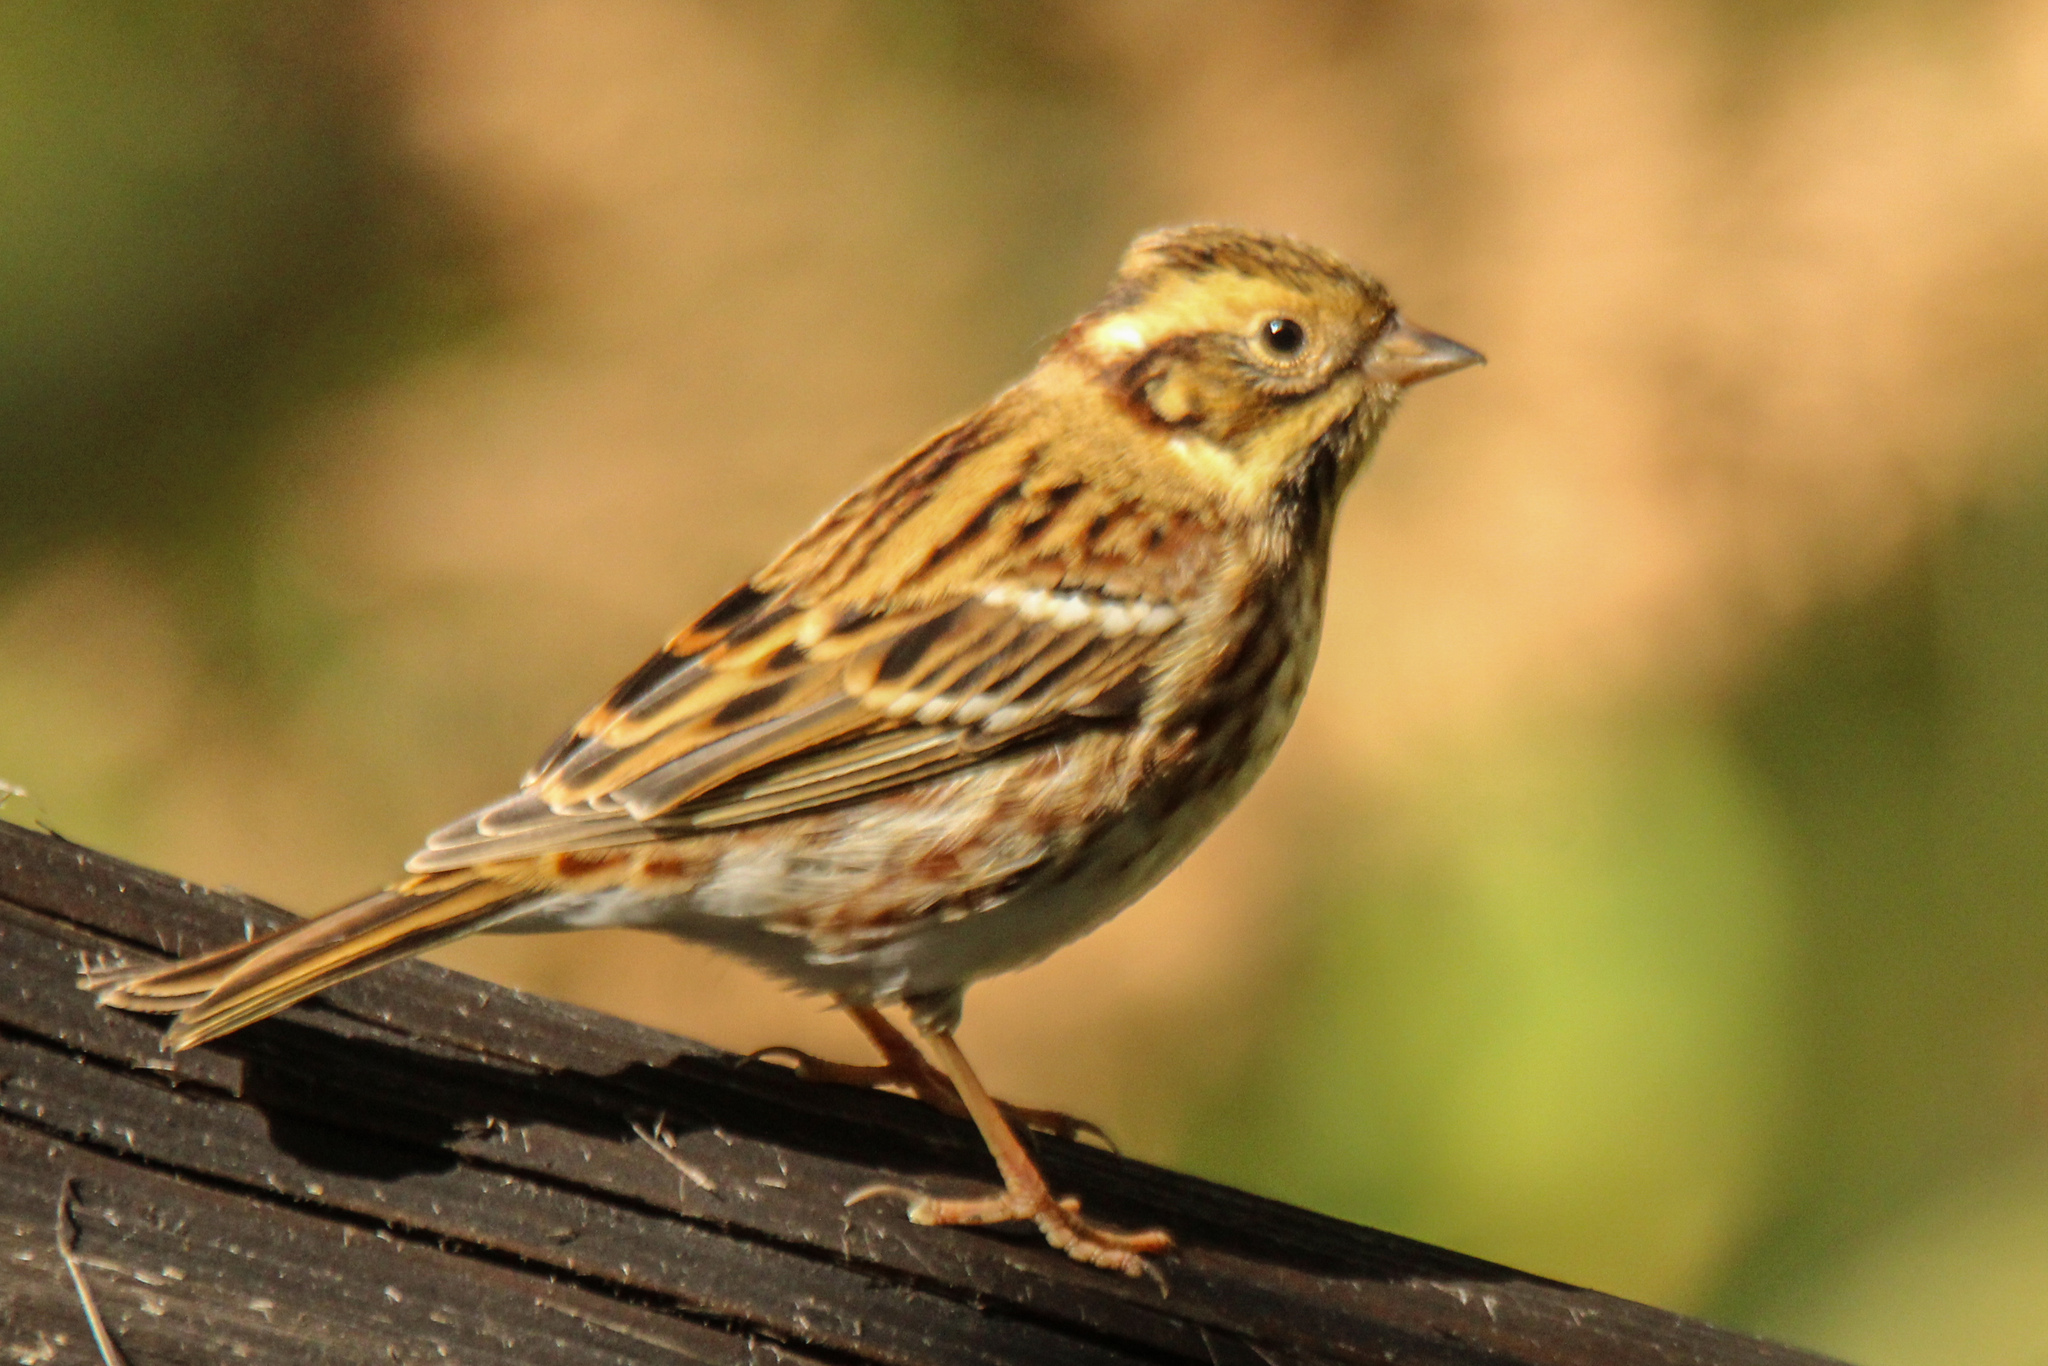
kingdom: Animalia
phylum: Chordata
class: Aves
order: Passeriformes
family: Emberizidae
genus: Emberiza
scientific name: Emberiza rustica
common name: Rustic bunting
